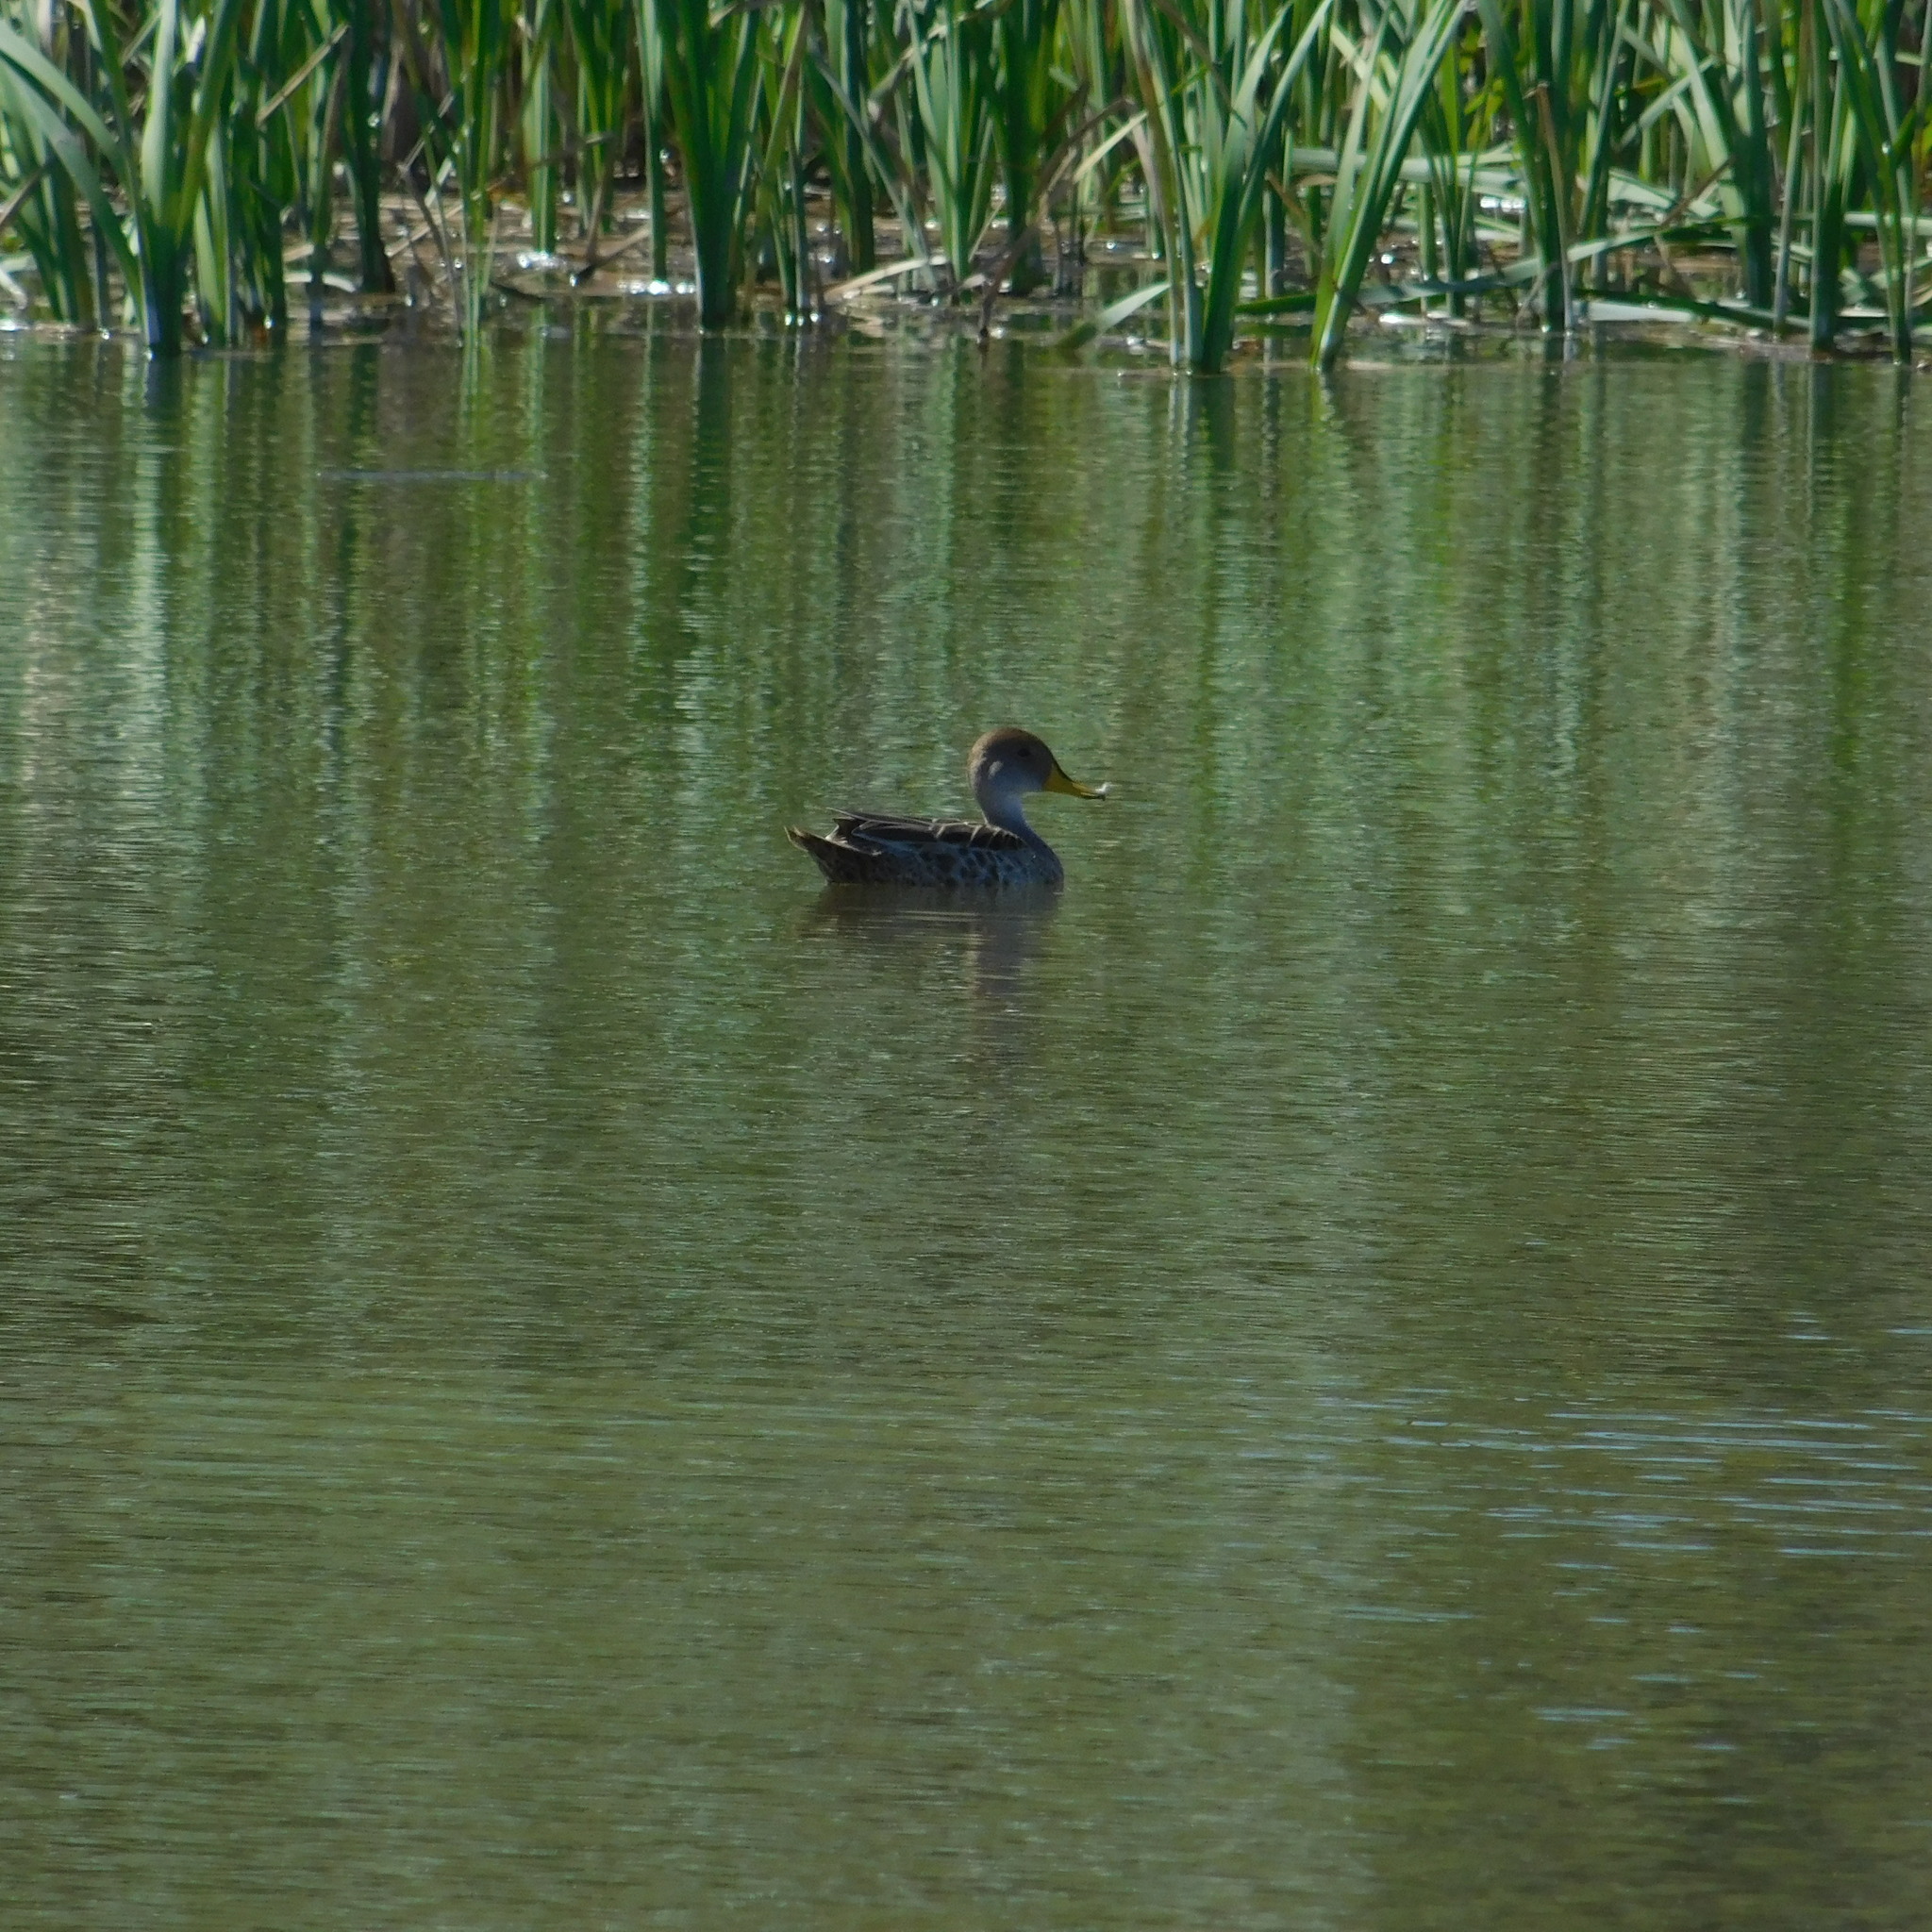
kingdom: Animalia
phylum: Chordata
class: Aves
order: Anseriformes
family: Anatidae
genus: Anas
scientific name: Anas georgica
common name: Yellow-billed pintail
